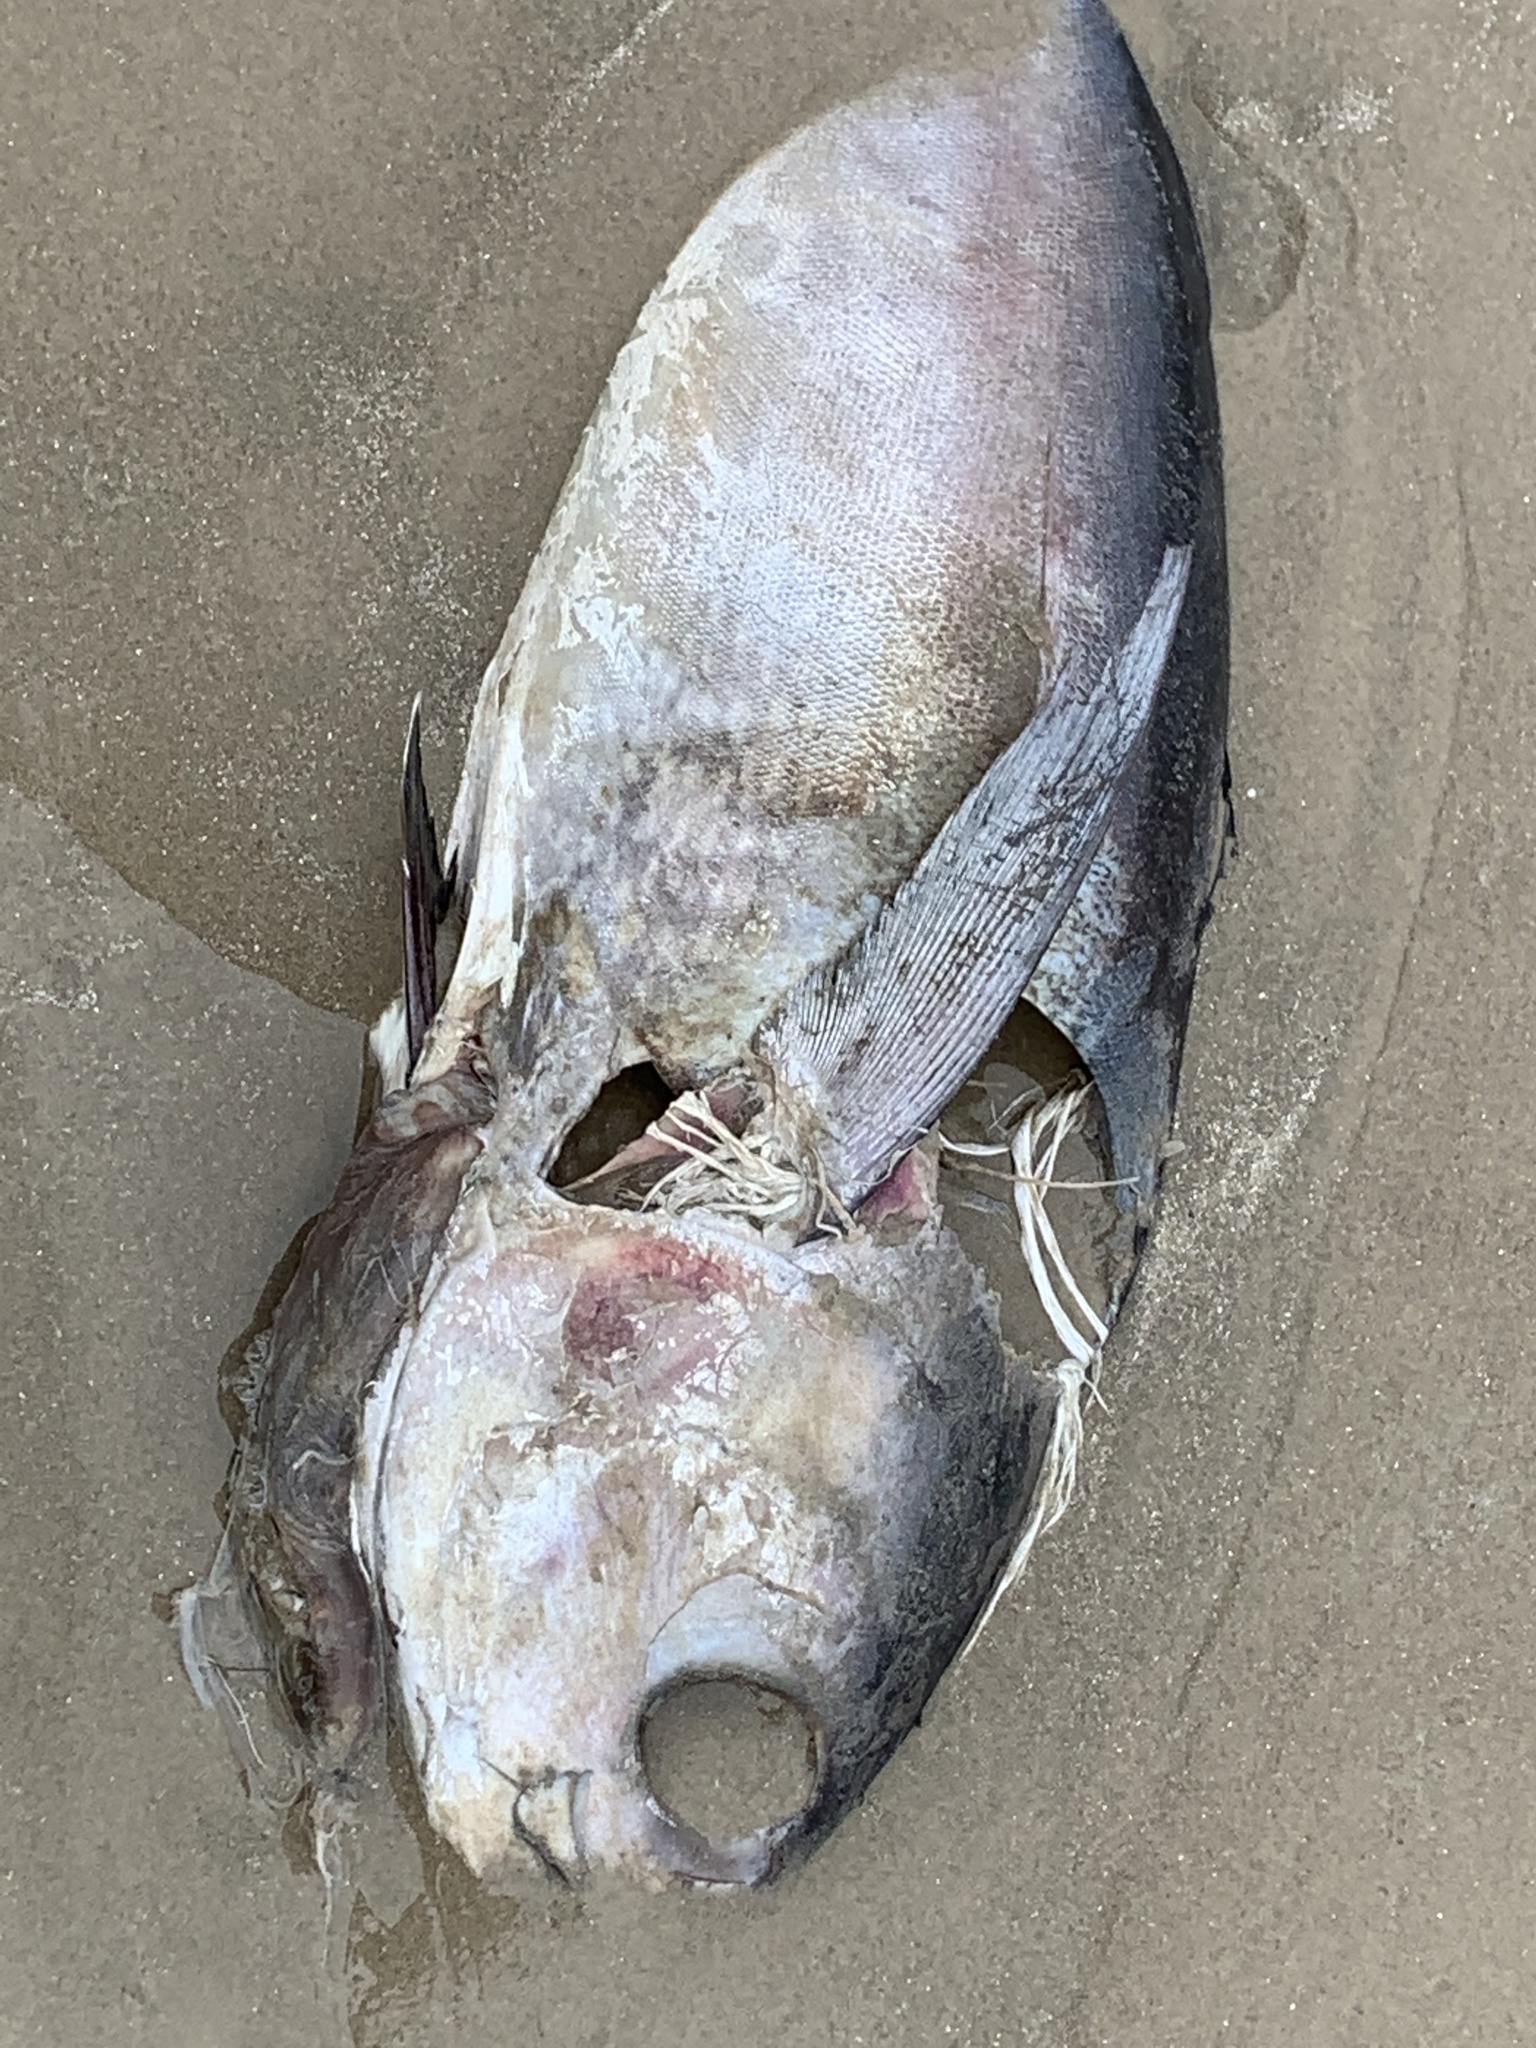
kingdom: Animalia
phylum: Chordata
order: Perciformes
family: Scombridae
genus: Thunnus
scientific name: Thunnus atlanticus
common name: Blackfin tuna
